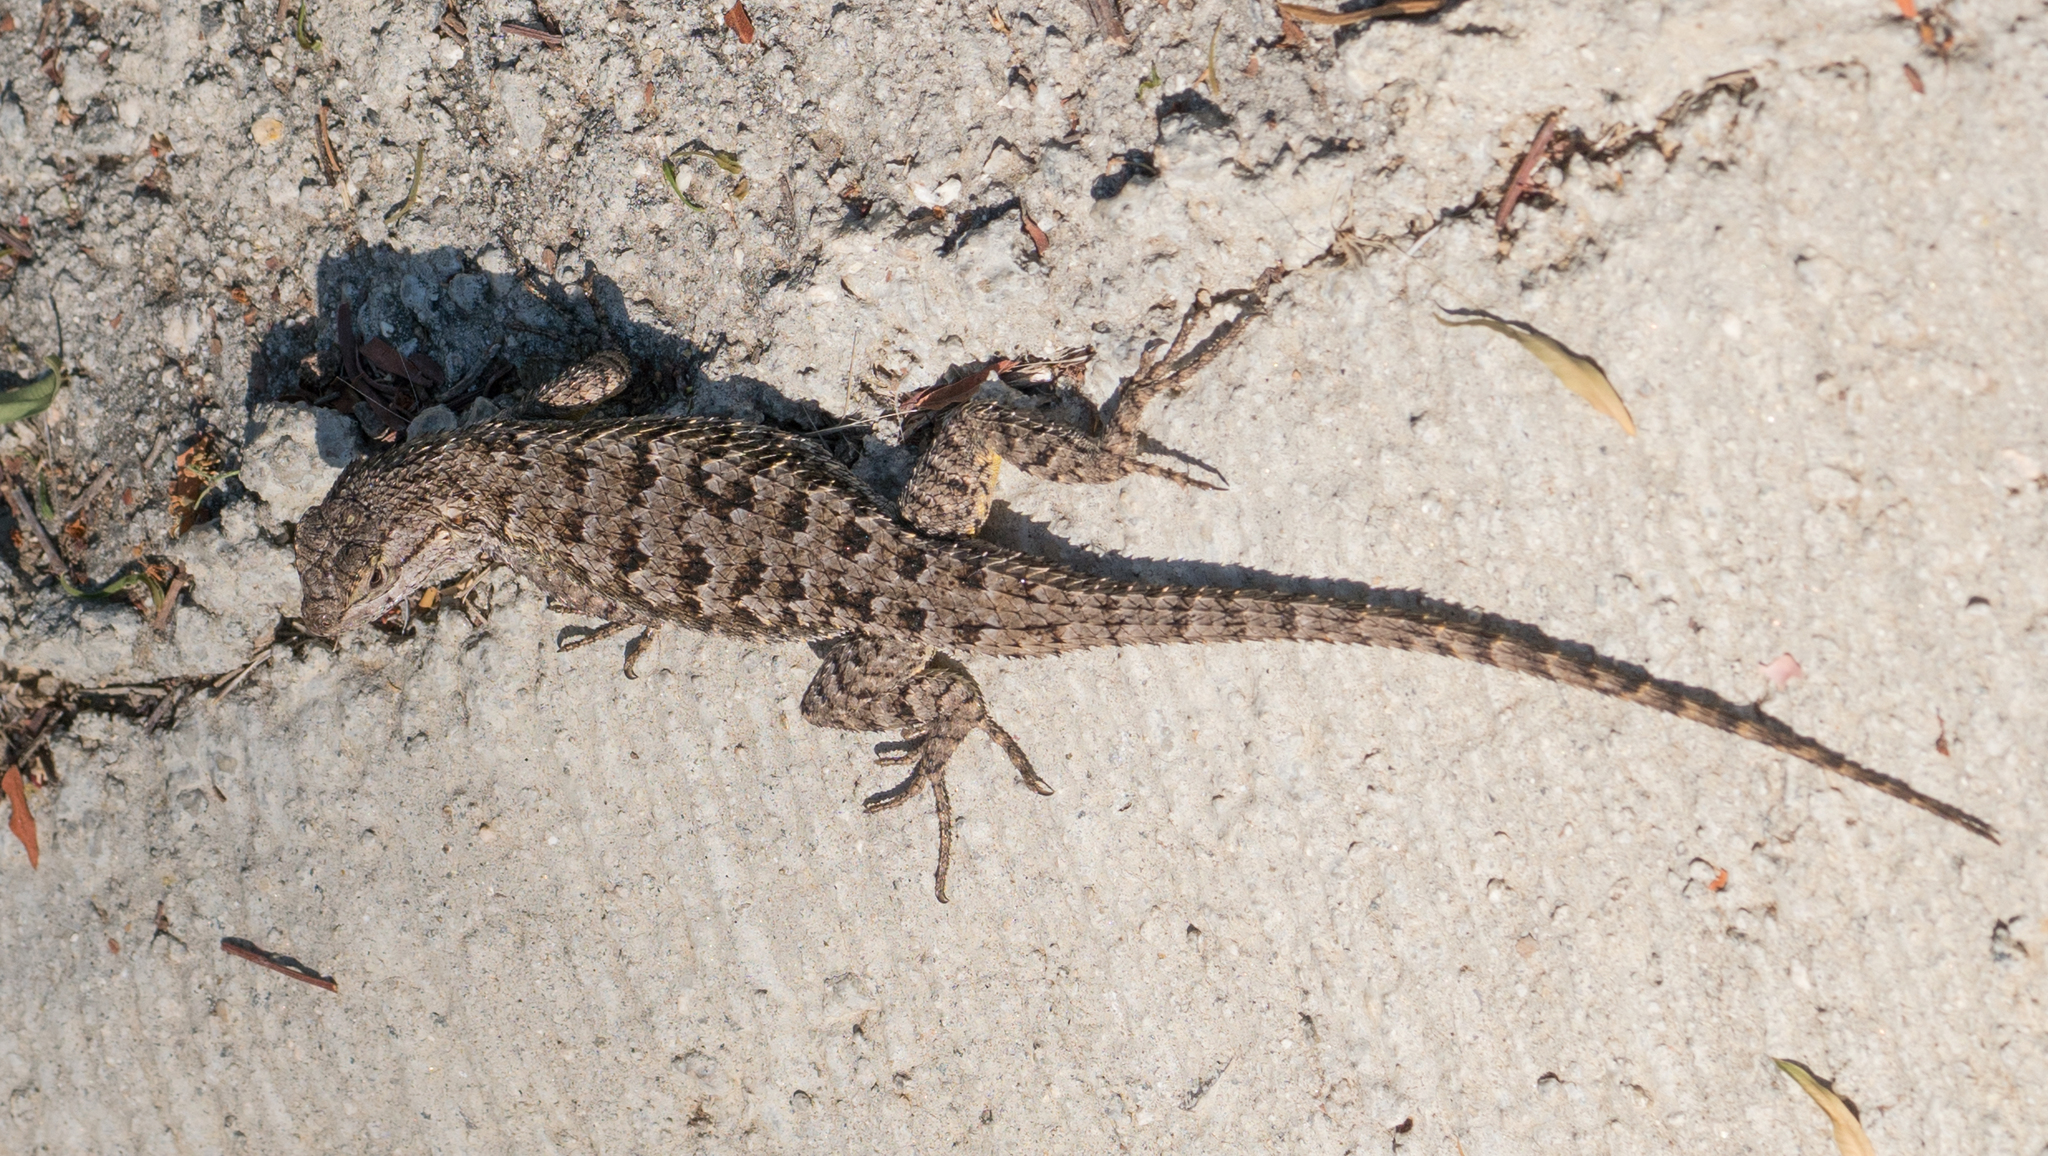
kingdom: Animalia
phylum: Chordata
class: Squamata
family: Phrynosomatidae
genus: Sceloporus
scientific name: Sceloporus occidentalis
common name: Western fence lizard
